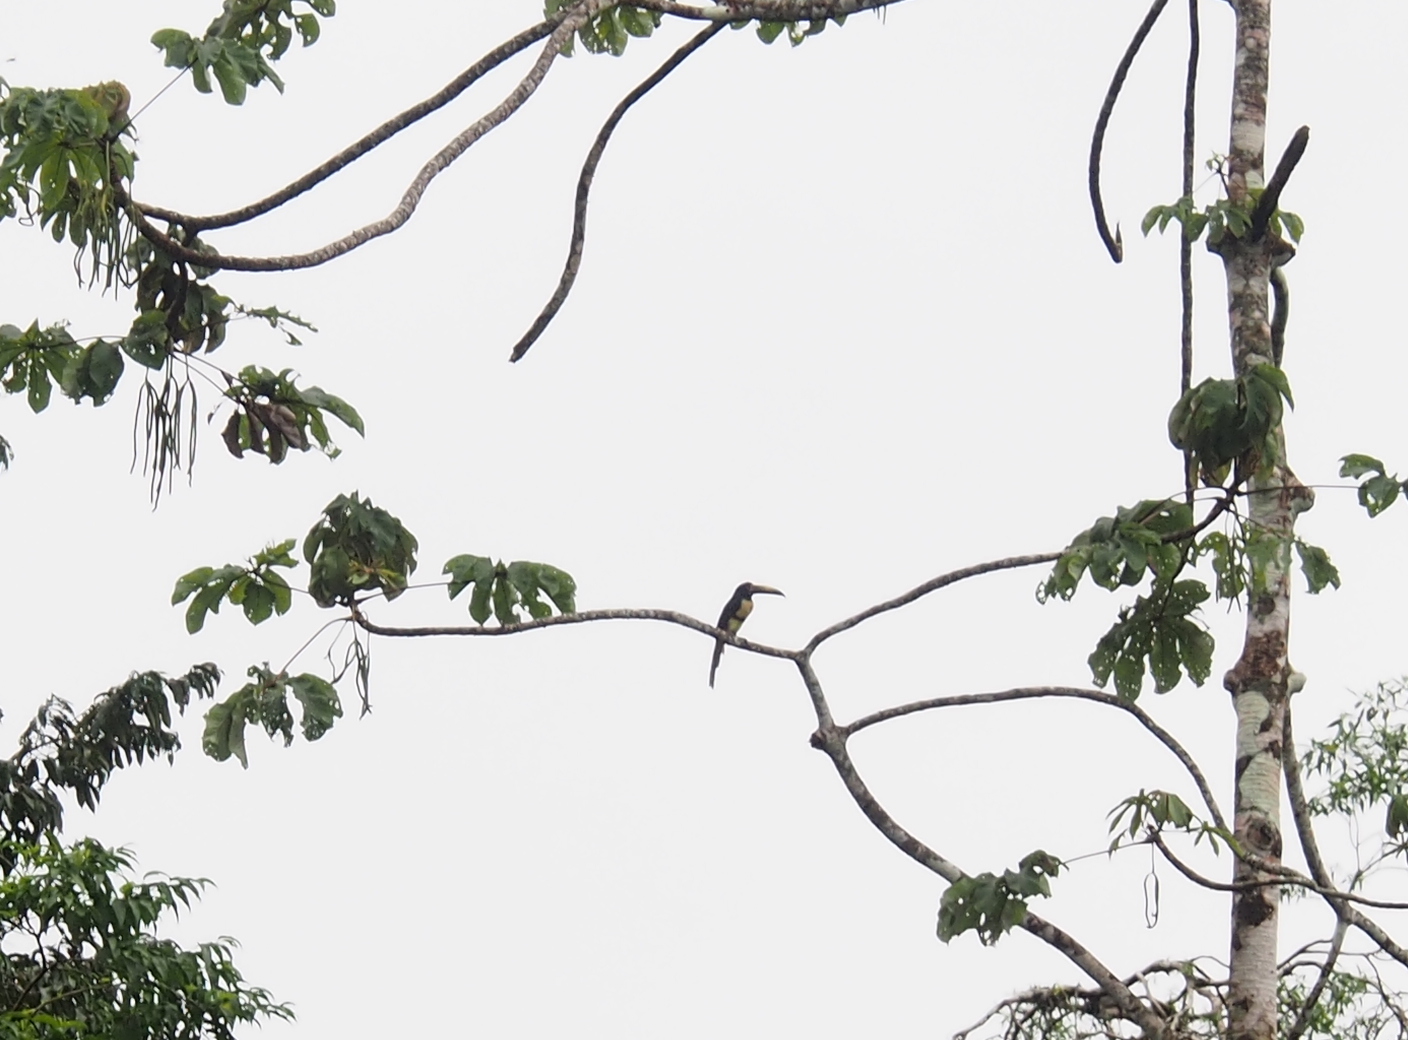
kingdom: Animalia
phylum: Chordata
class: Aves
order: Piciformes
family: Ramphastidae
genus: Pteroglossus
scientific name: Pteroglossus torquatus
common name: Collared aracari
